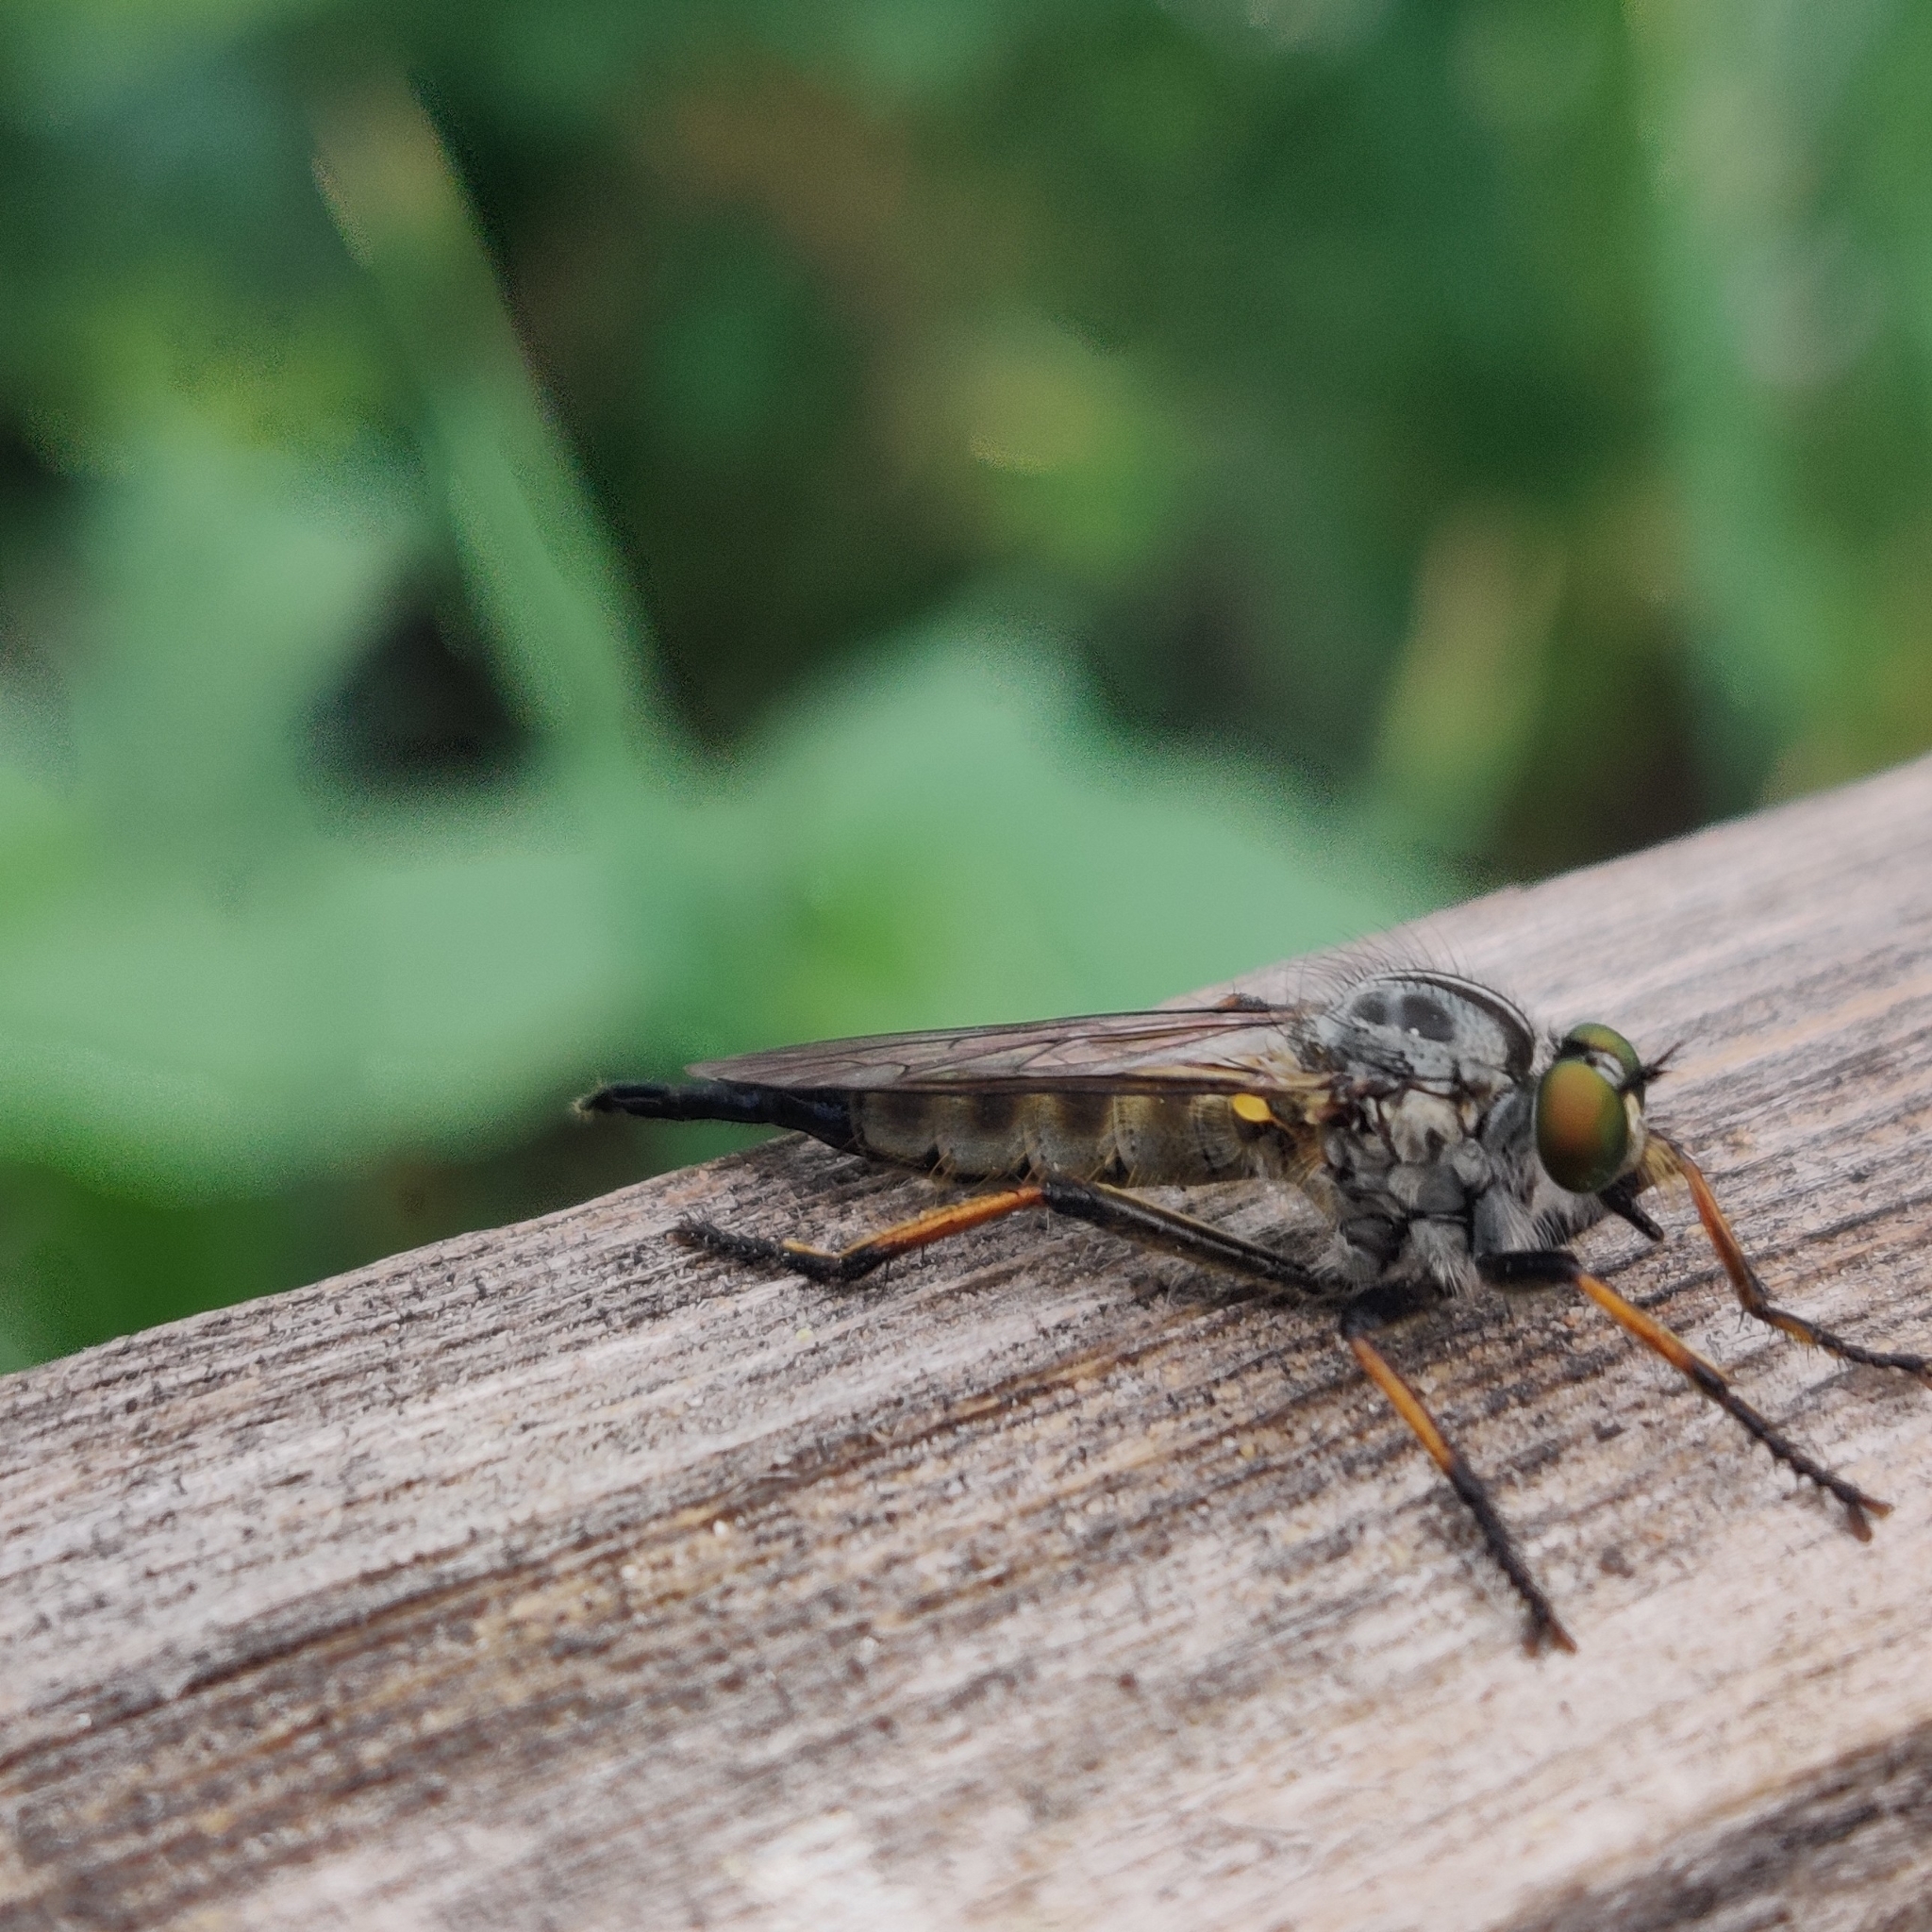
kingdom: Animalia
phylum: Arthropoda
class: Insecta
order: Diptera
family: Asilidae
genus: Neoitamus
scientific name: Neoitamus
